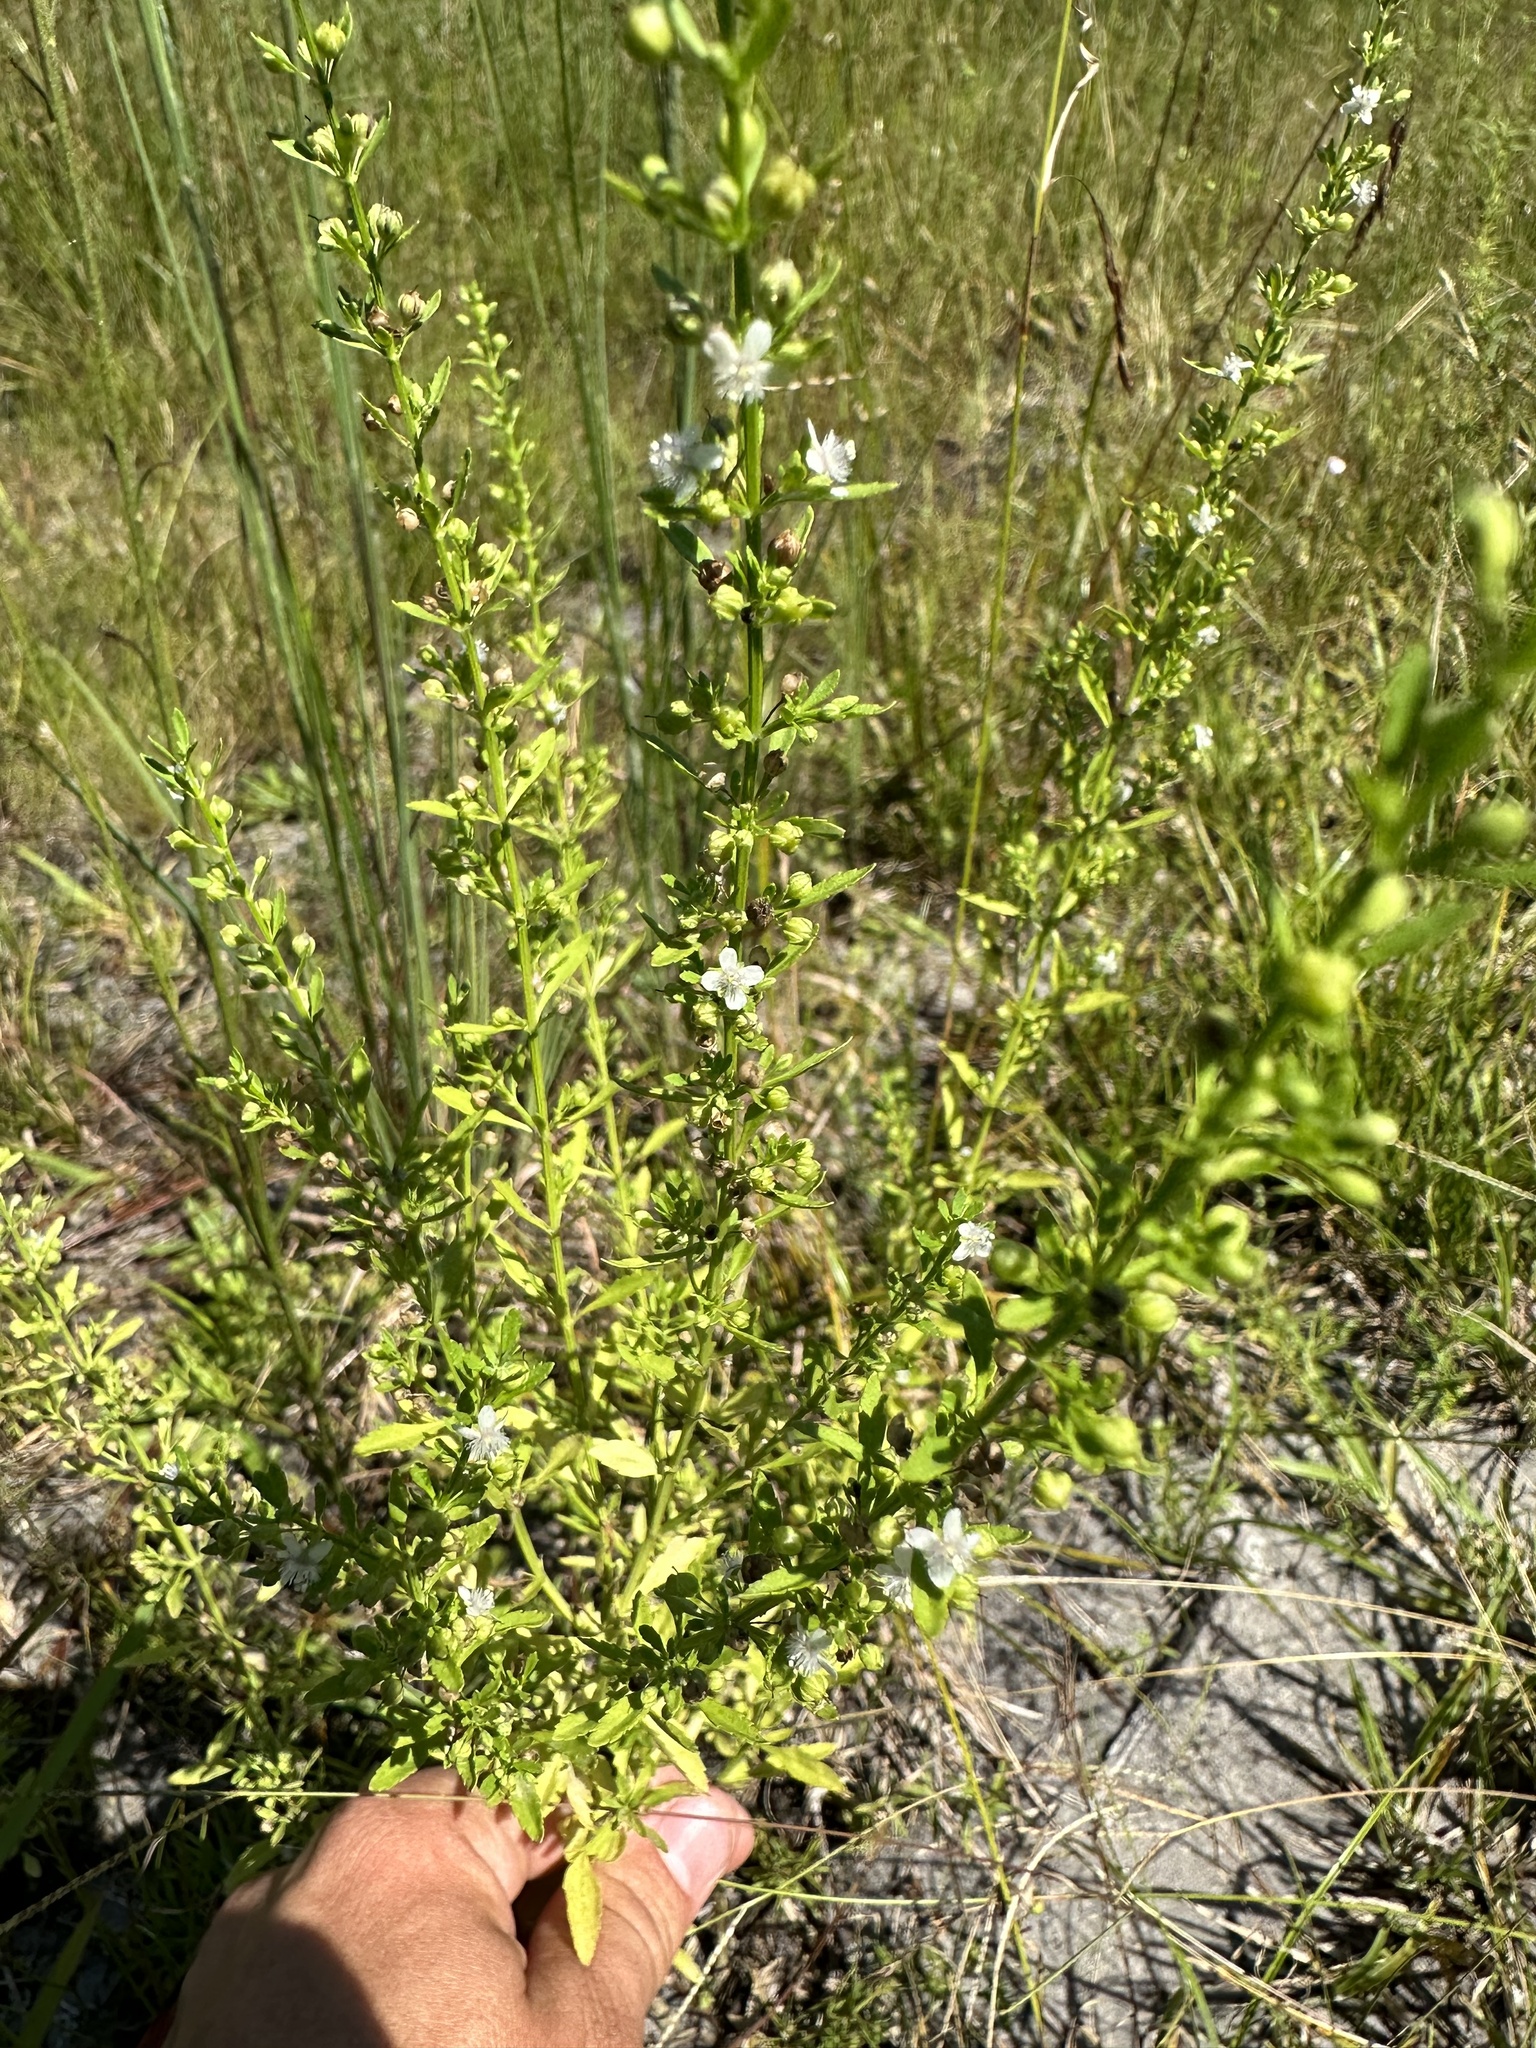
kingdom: Plantae
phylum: Tracheophyta
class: Magnoliopsida
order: Lamiales
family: Plantaginaceae
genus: Scoparia
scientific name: Scoparia dulcis
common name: Scoparia-weed
